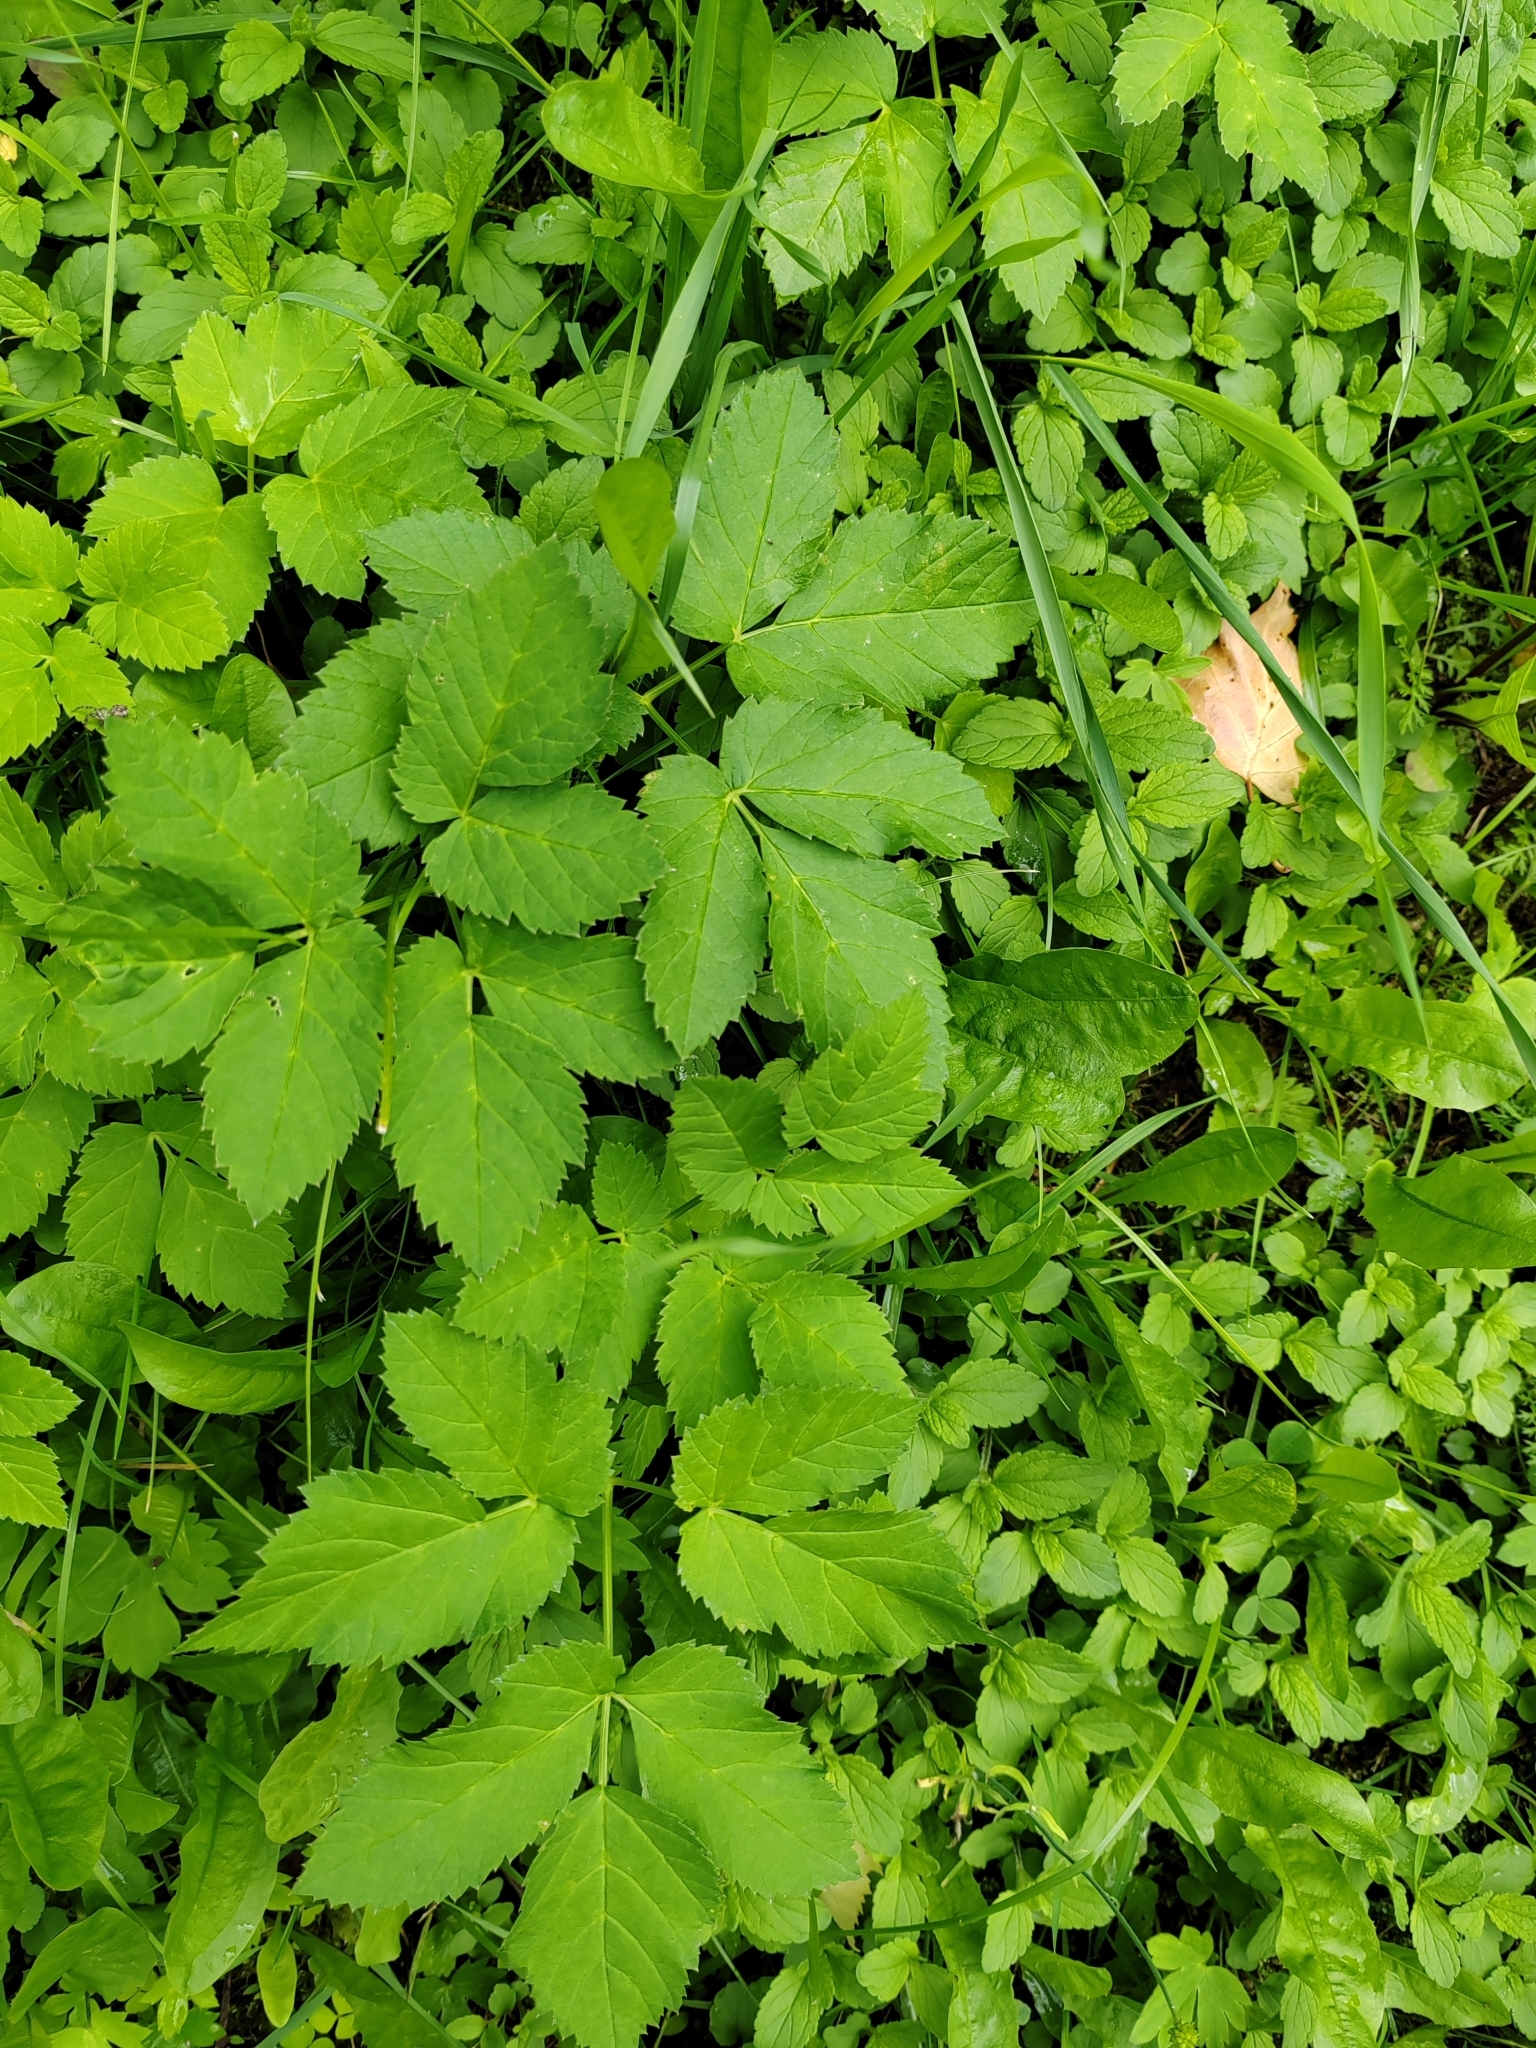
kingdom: Plantae
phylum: Tracheophyta
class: Magnoliopsida
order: Apiales
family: Apiaceae
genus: Aegopodium
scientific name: Aegopodium podagraria
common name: Ground-elder
